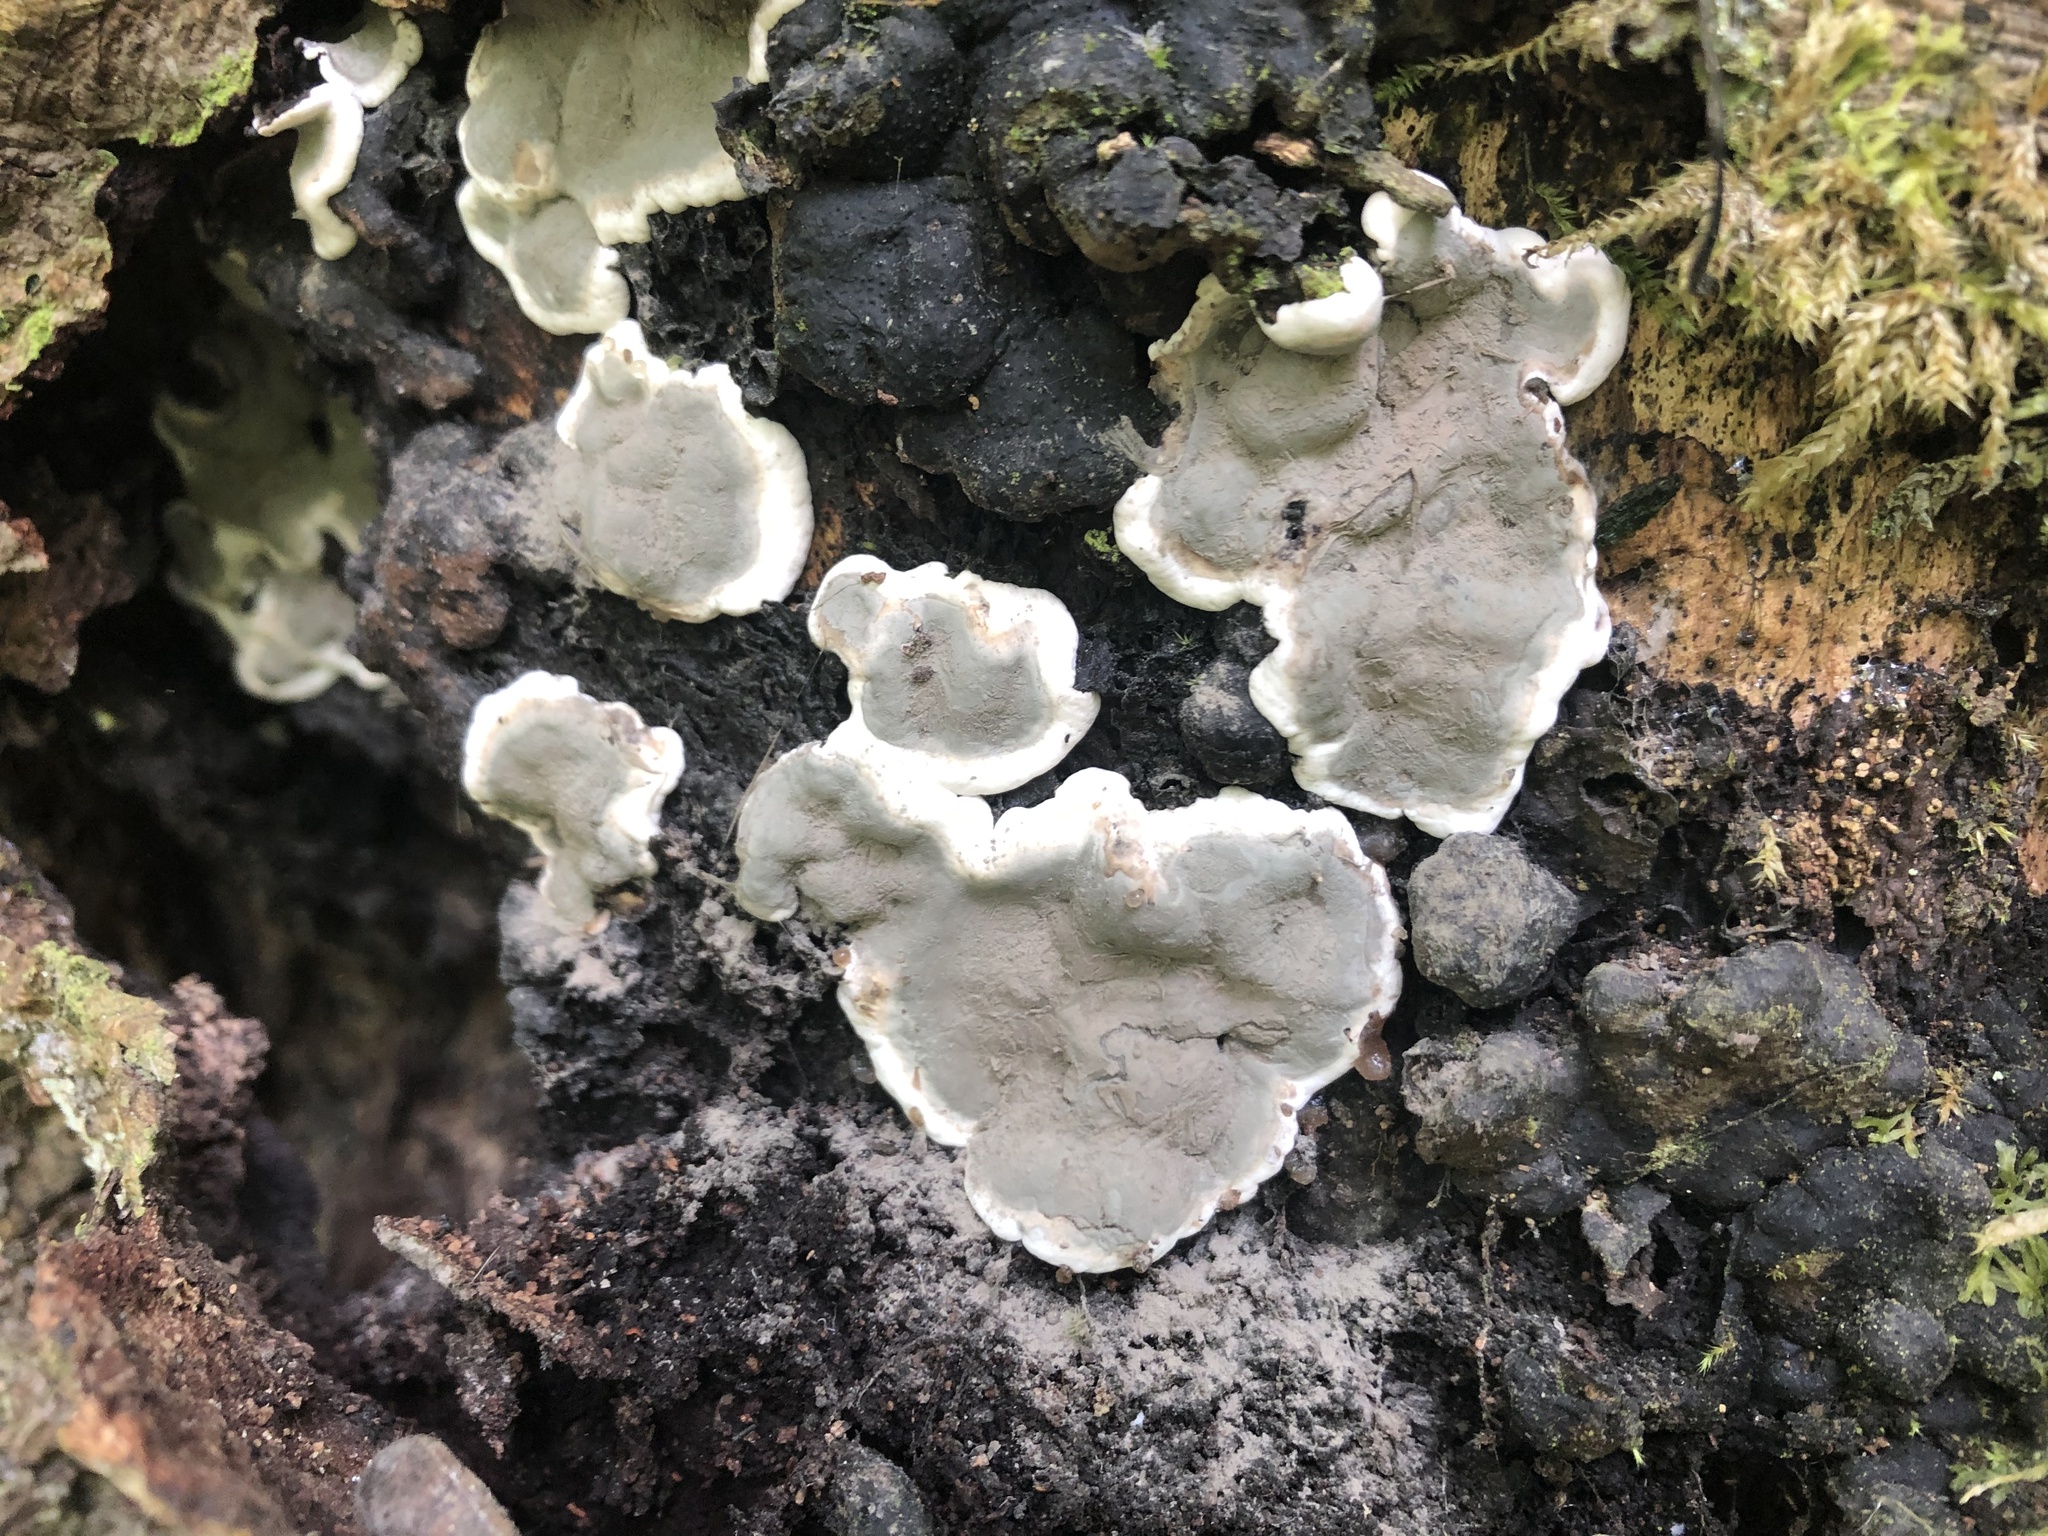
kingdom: Fungi
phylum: Ascomycota
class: Sordariomycetes
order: Xylariales
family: Xylariaceae
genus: Kretzschmaria
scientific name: Kretzschmaria deusta
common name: Brittle cinder
